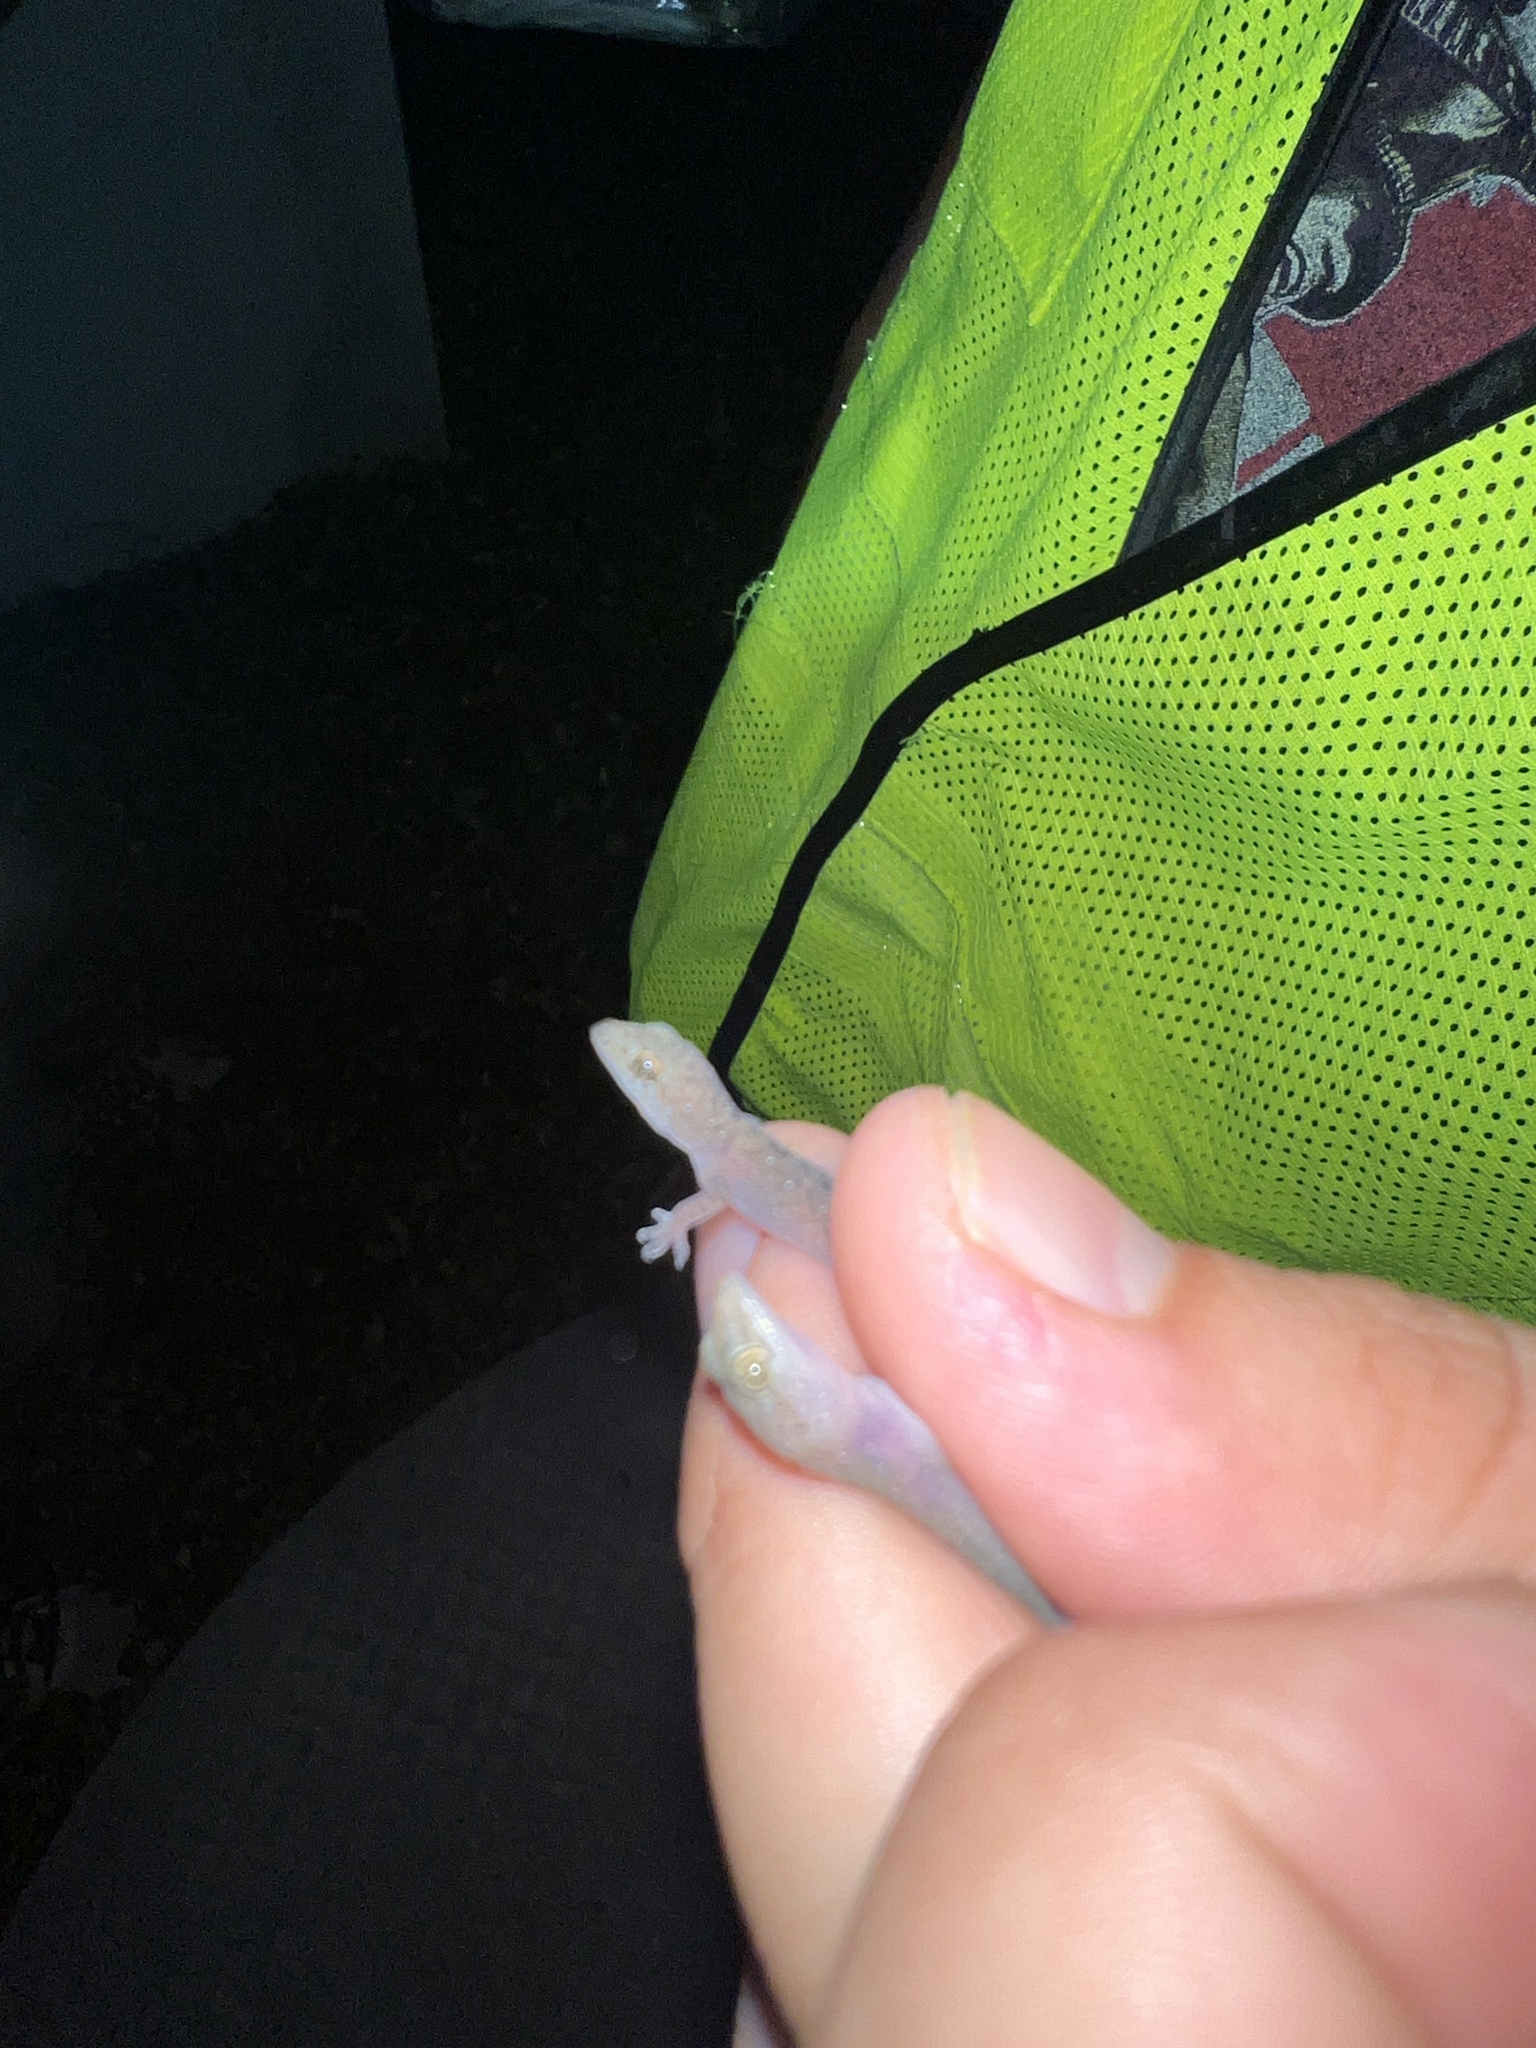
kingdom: Animalia
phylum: Chordata
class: Squamata
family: Gekkonidae
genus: Hemidactylus
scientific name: Hemidactylus parvimaculatus
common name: Spotted house gecko
